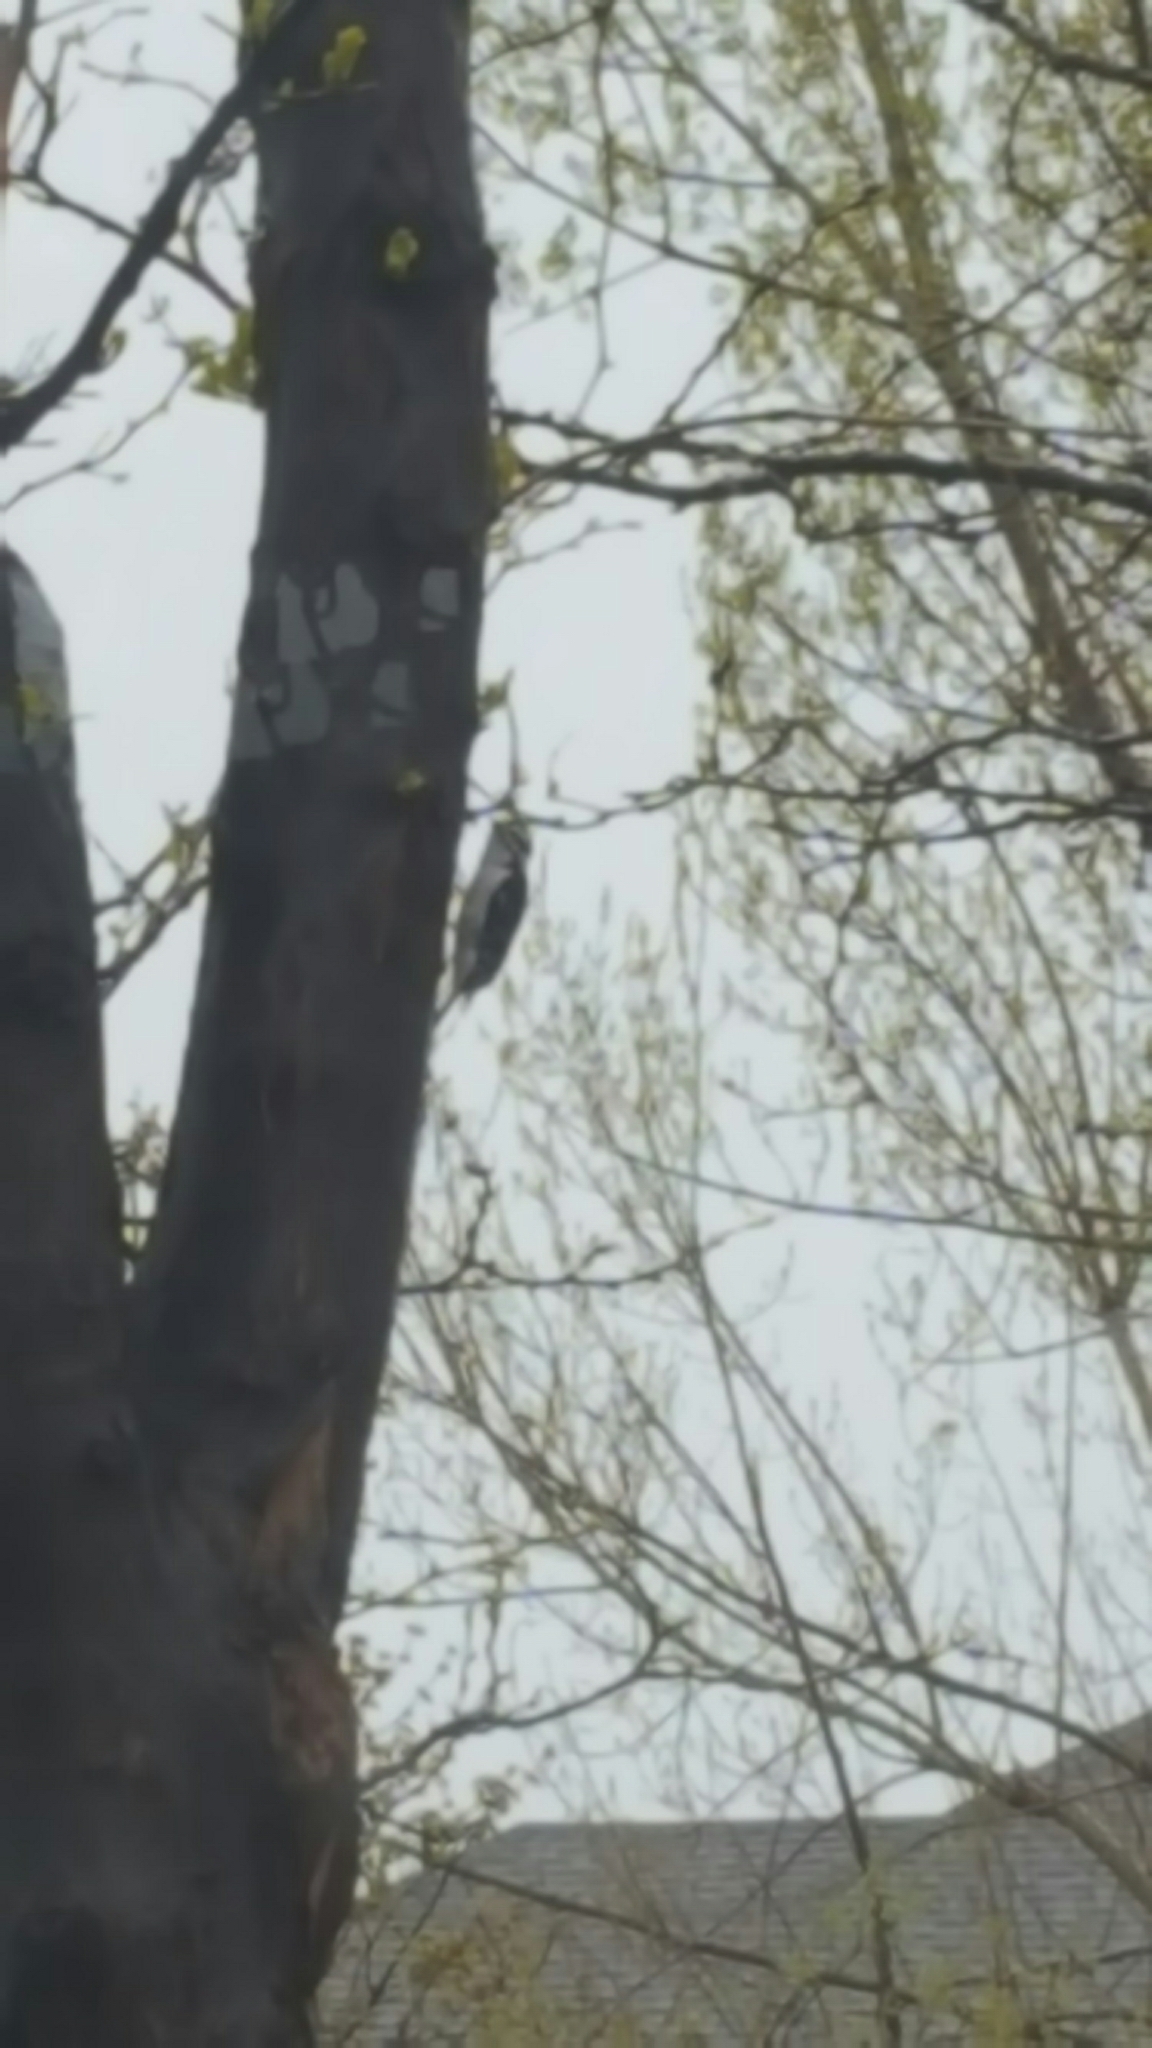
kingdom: Animalia
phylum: Chordata
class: Aves
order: Piciformes
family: Picidae
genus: Dryobates
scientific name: Dryobates pubescens
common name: Downy woodpecker
